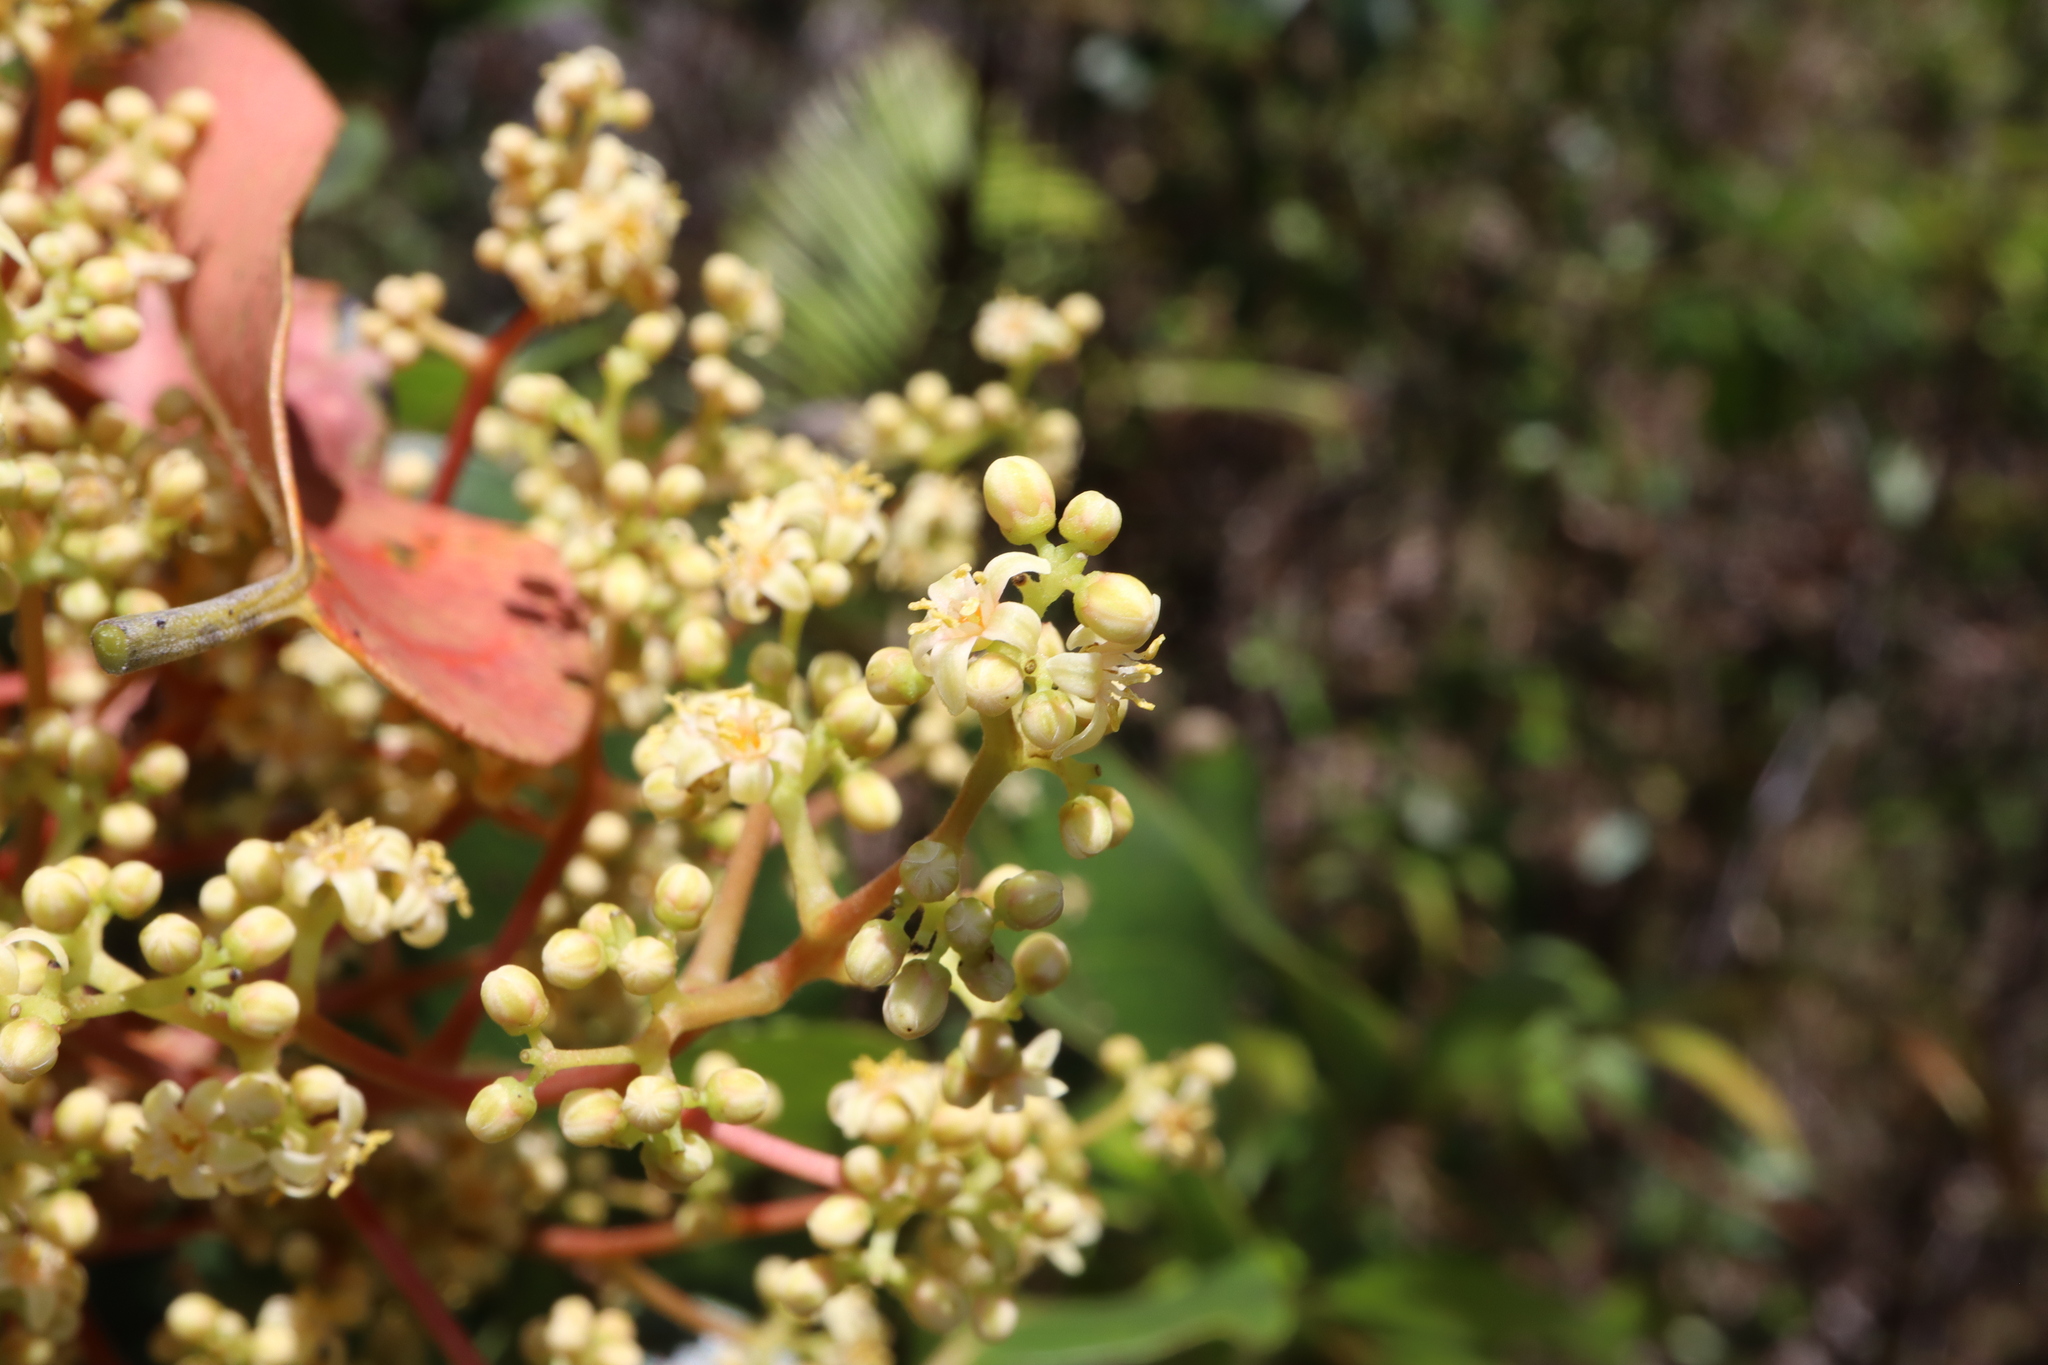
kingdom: Plantae
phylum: Tracheophyta
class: Magnoliopsida
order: Sapindales
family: Anacardiaceae
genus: Euroschinus
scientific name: Euroschinus falcatus
